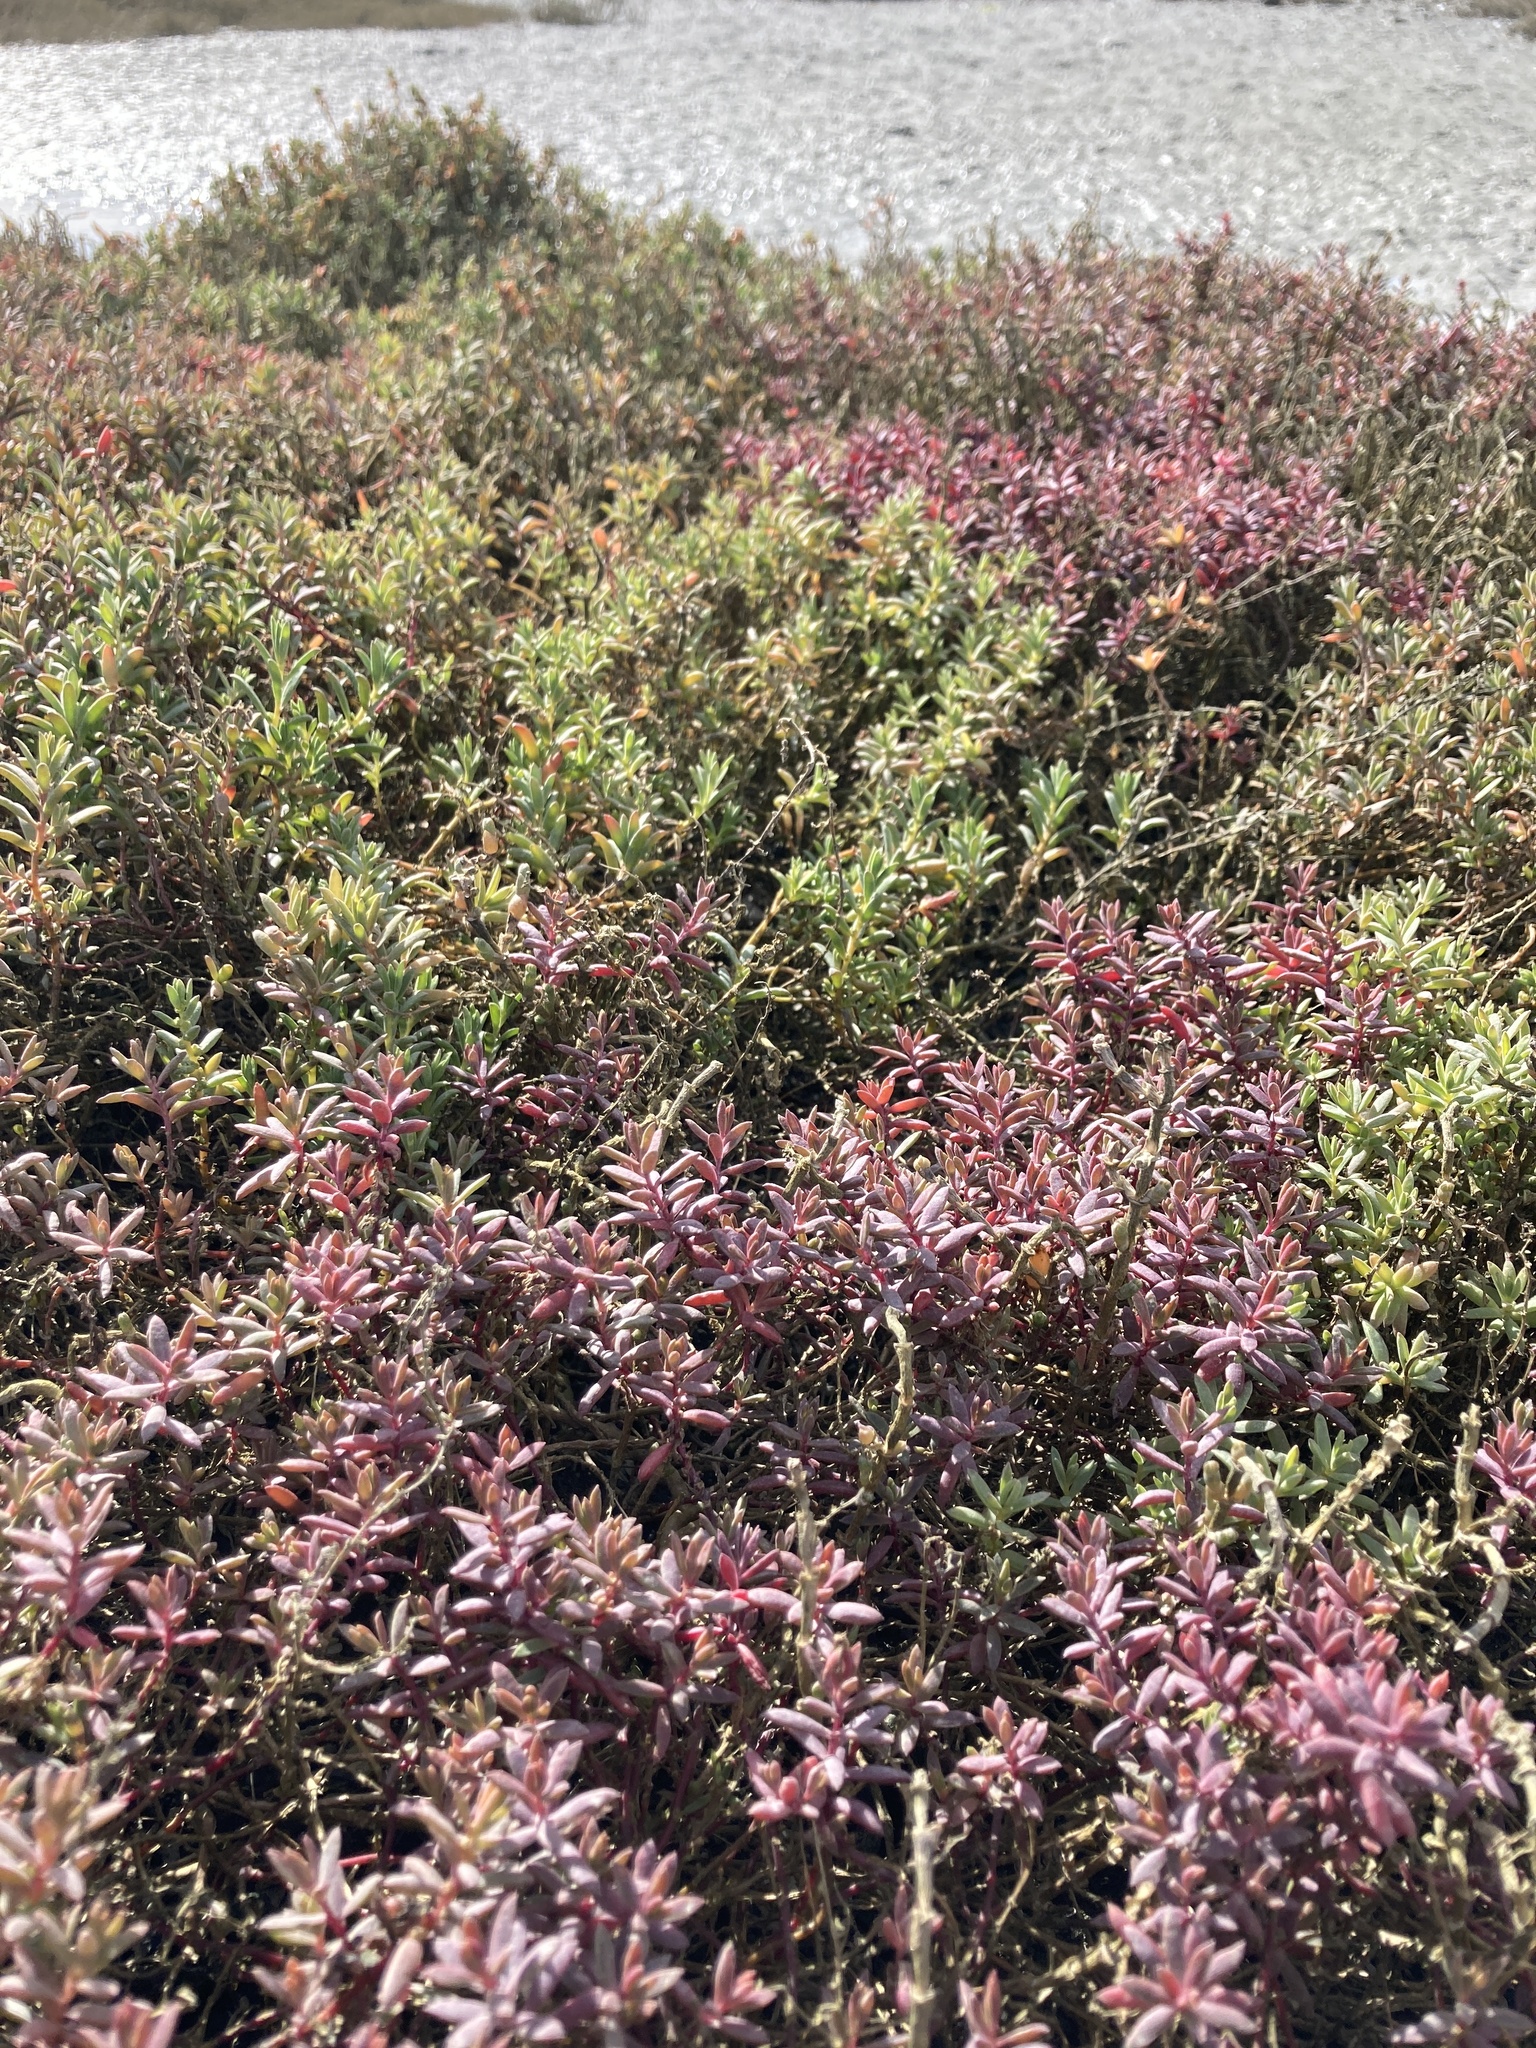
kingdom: Plantae
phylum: Tracheophyta
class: Magnoliopsida
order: Caryophyllales
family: Amaranthaceae
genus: Suaeda
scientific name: Suaeda novae-zelandiae
